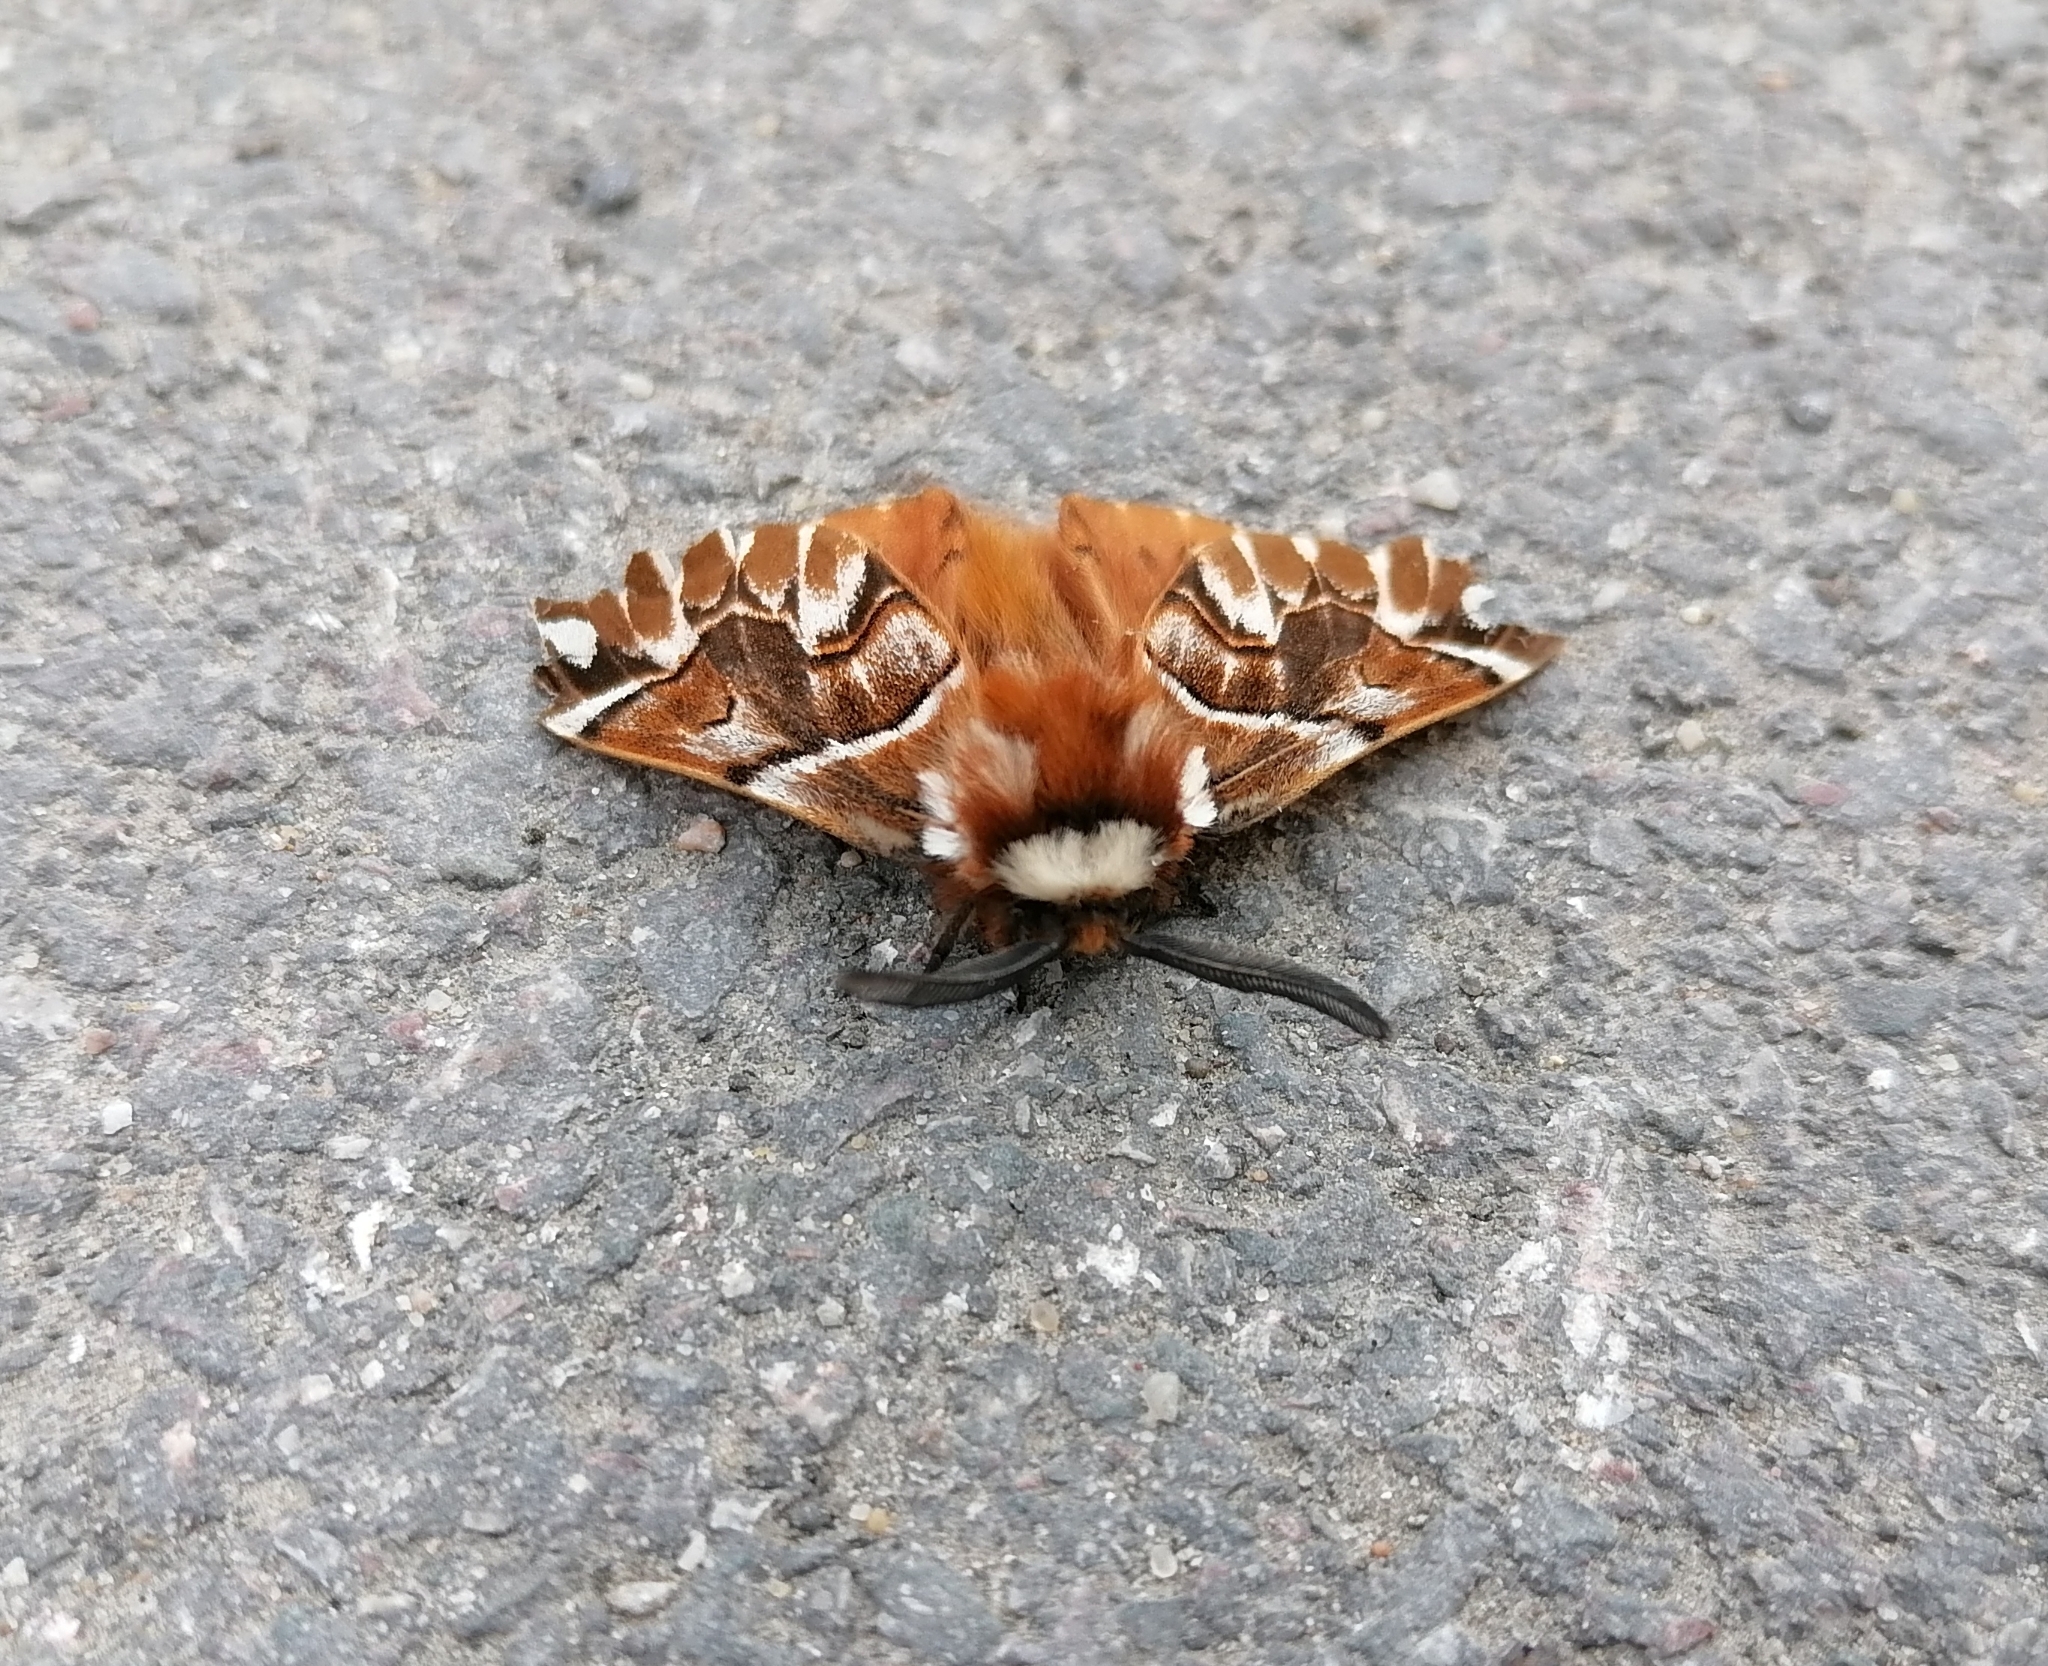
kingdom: Animalia
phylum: Arthropoda
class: Insecta
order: Lepidoptera
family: Endromidae
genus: Endromis
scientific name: Endromis versicolora
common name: Kentish glory
